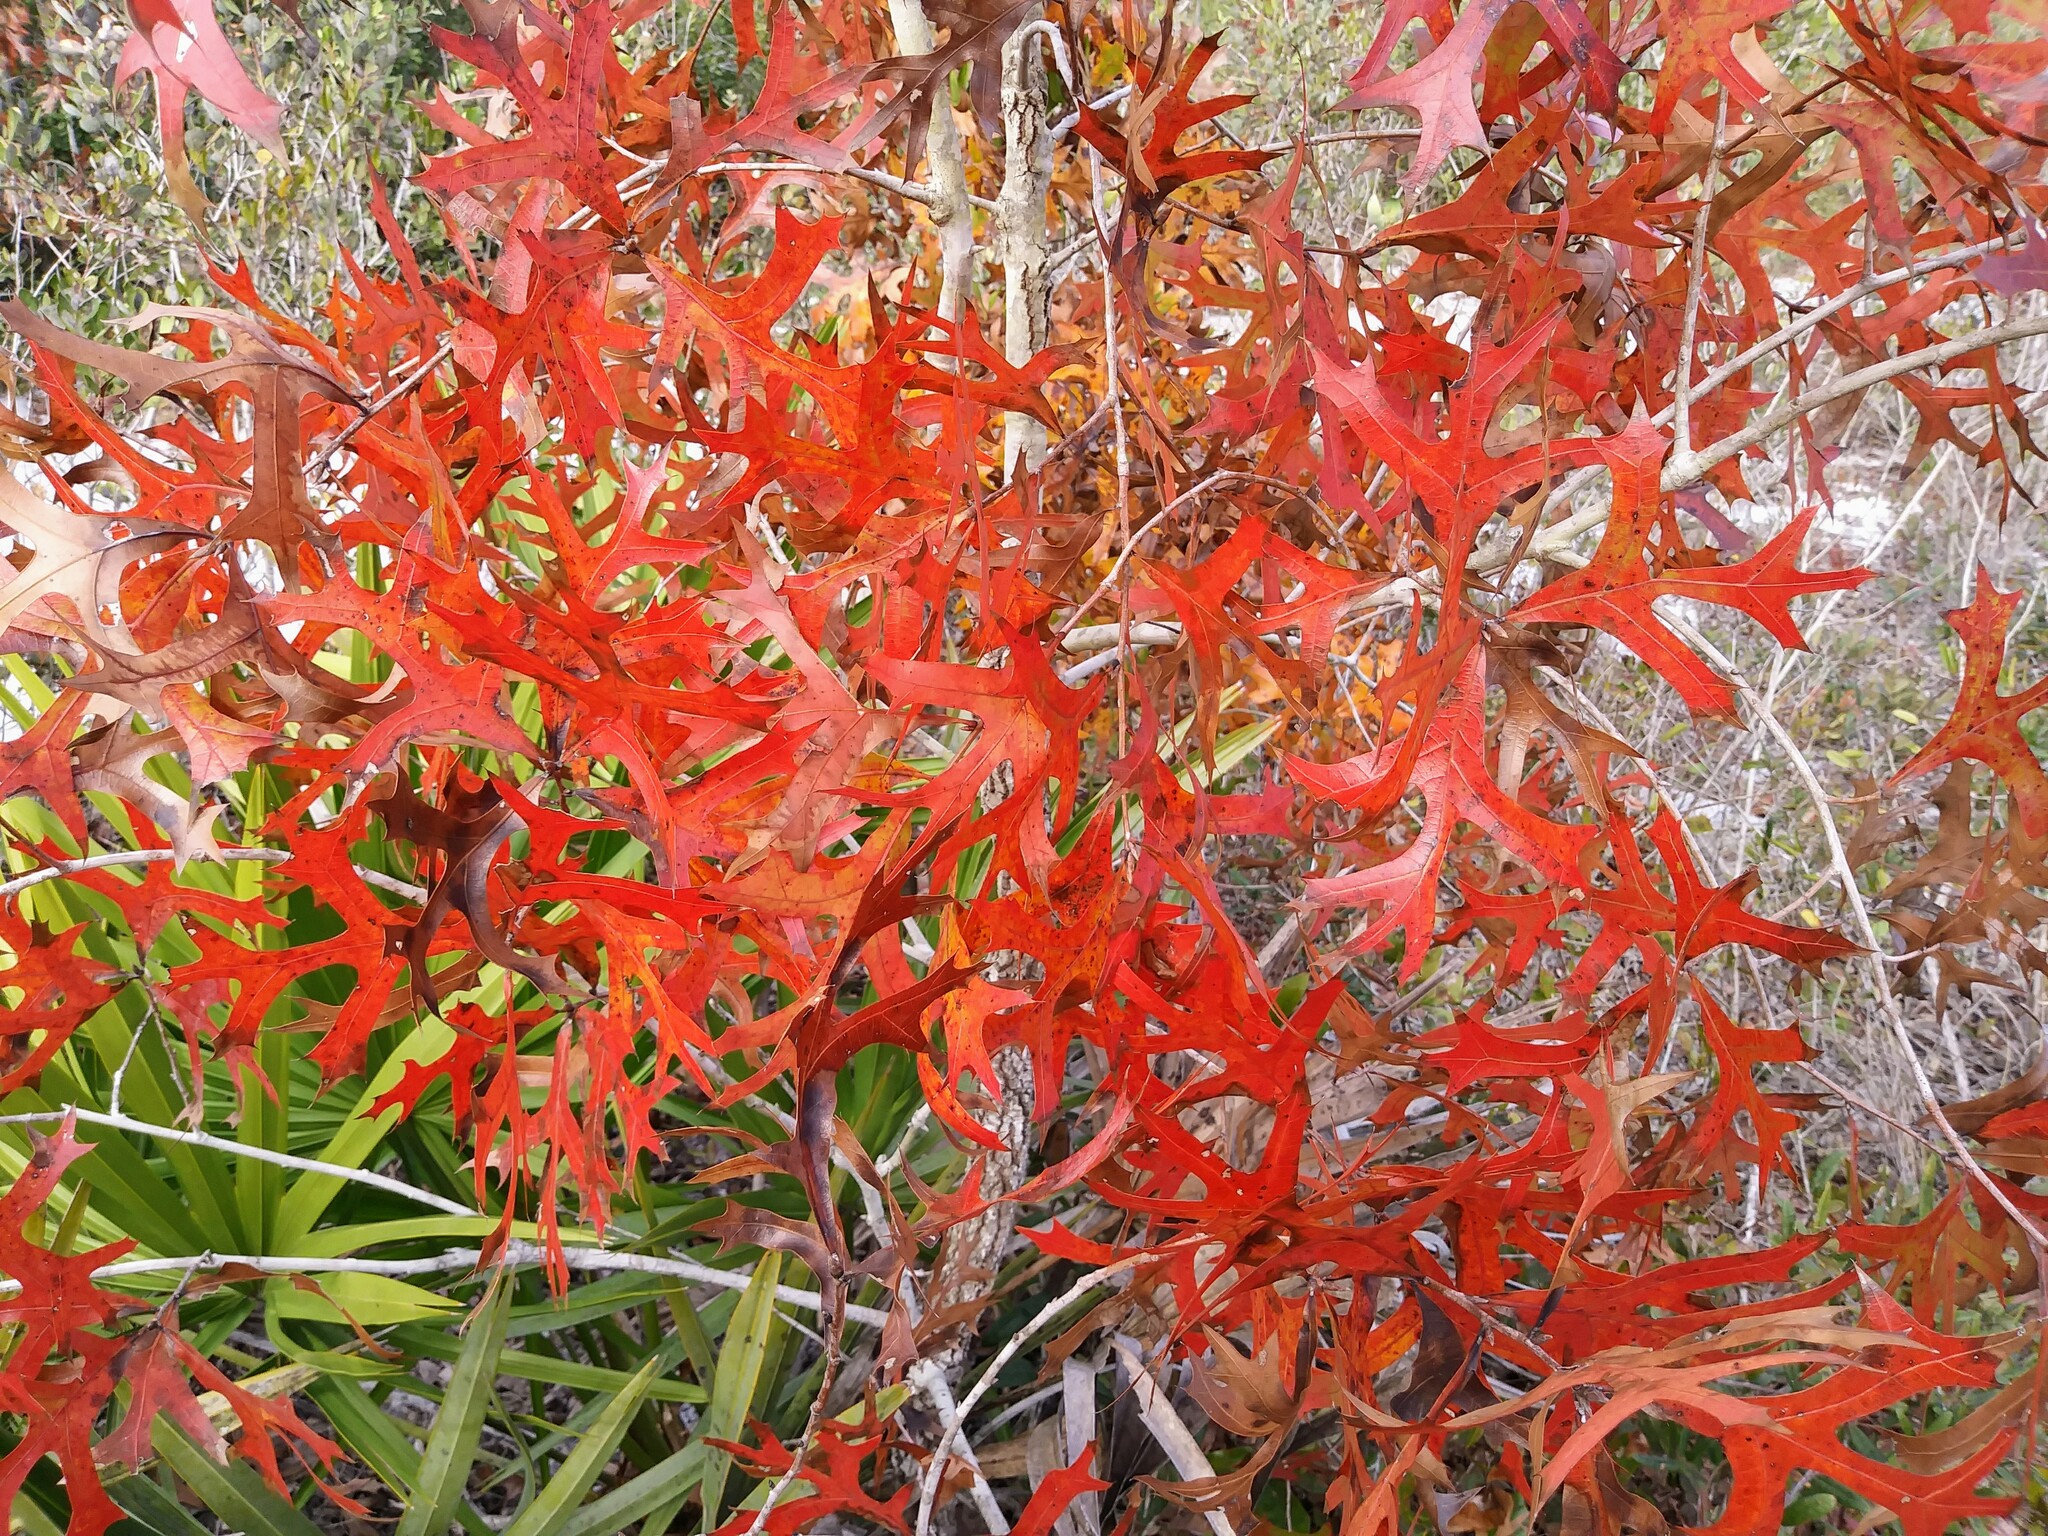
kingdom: Plantae
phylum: Tracheophyta
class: Magnoliopsida
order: Fagales
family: Fagaceae
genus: Quercus
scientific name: Quercus laevis
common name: Turkey oak
